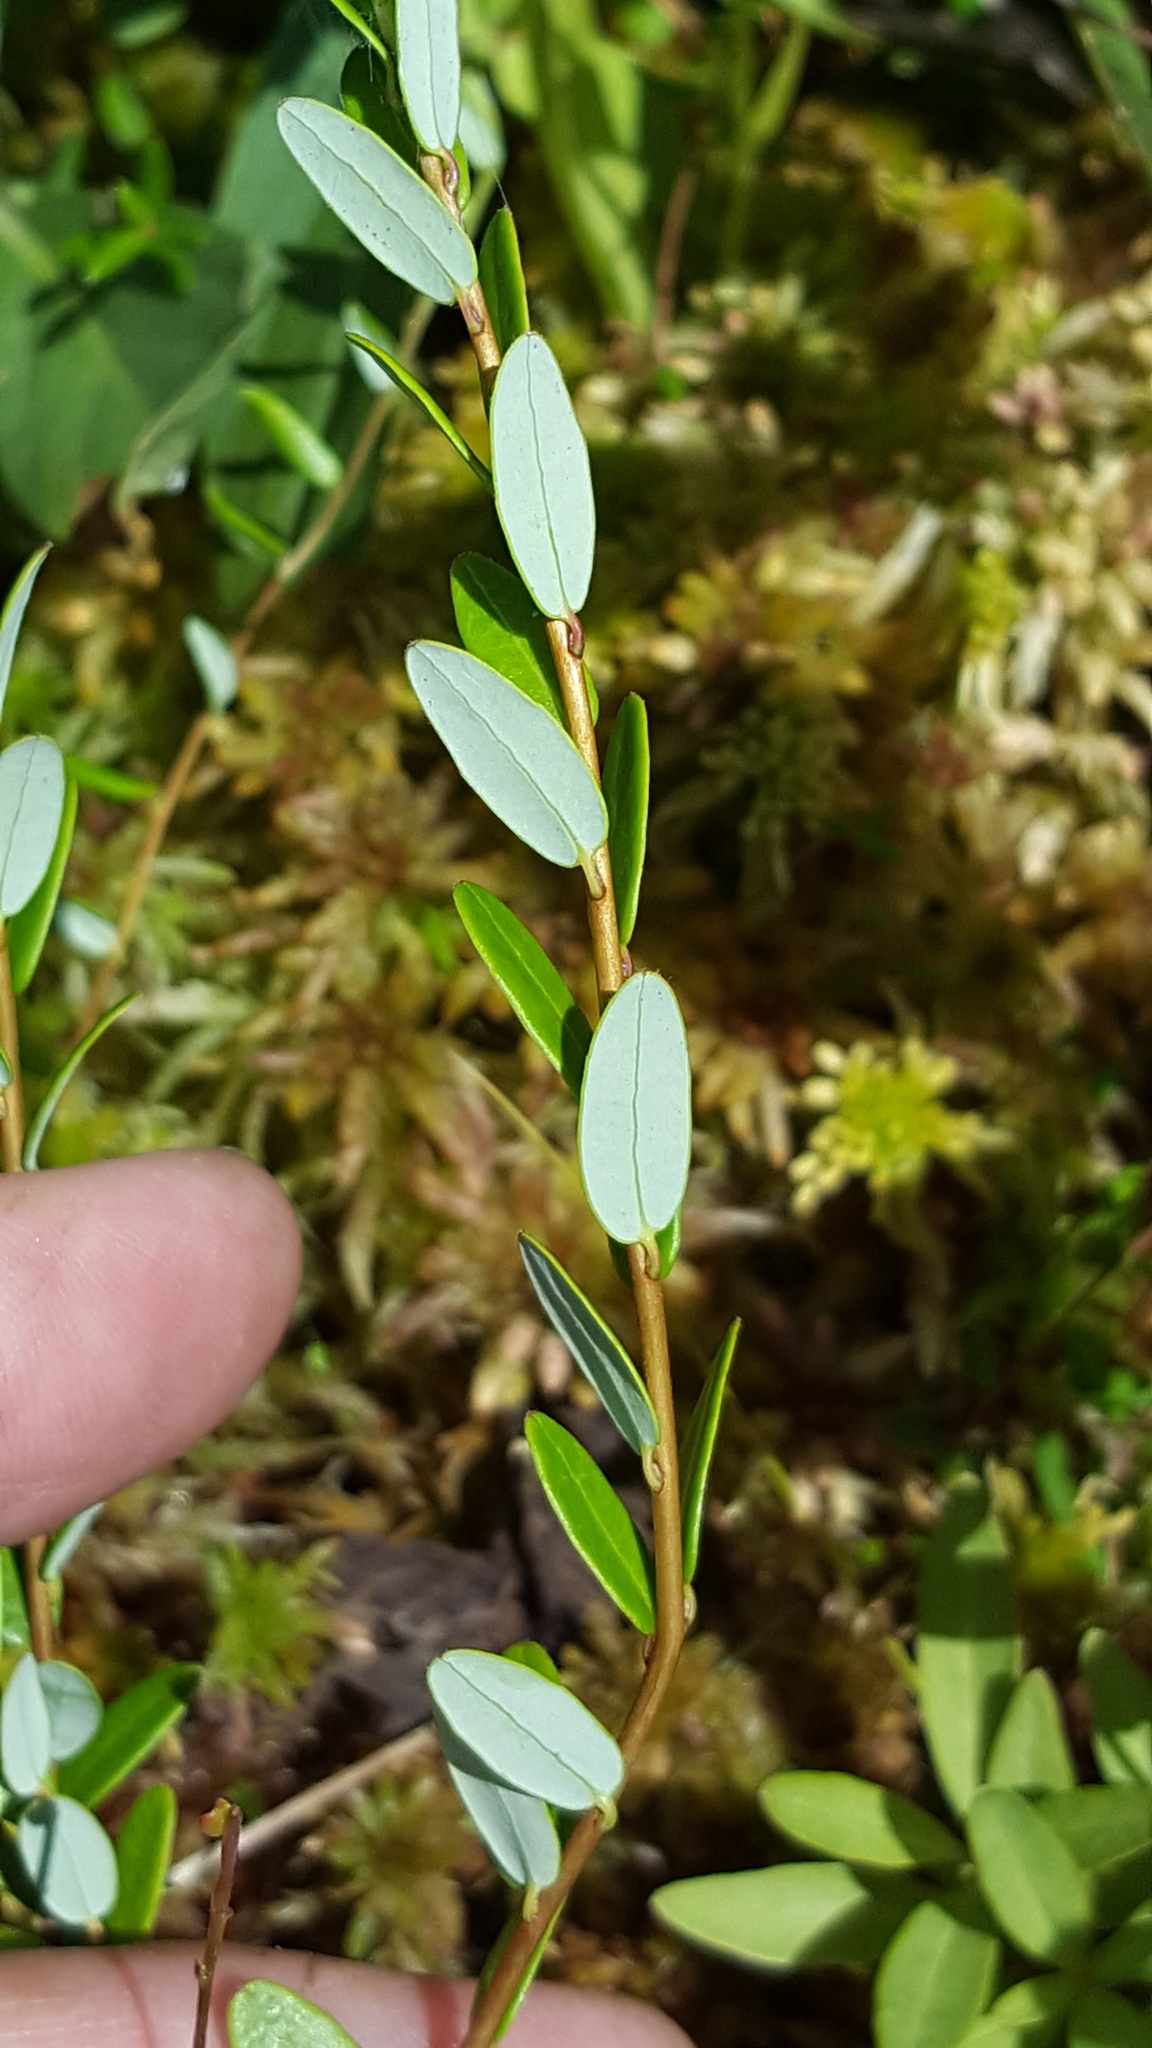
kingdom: Plantae
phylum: Tracheophyta
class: Magnoliopsida
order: Ericales
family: Ericaceae
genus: Vaccinium
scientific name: Vaccinium macrocarpon
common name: American cranberry
